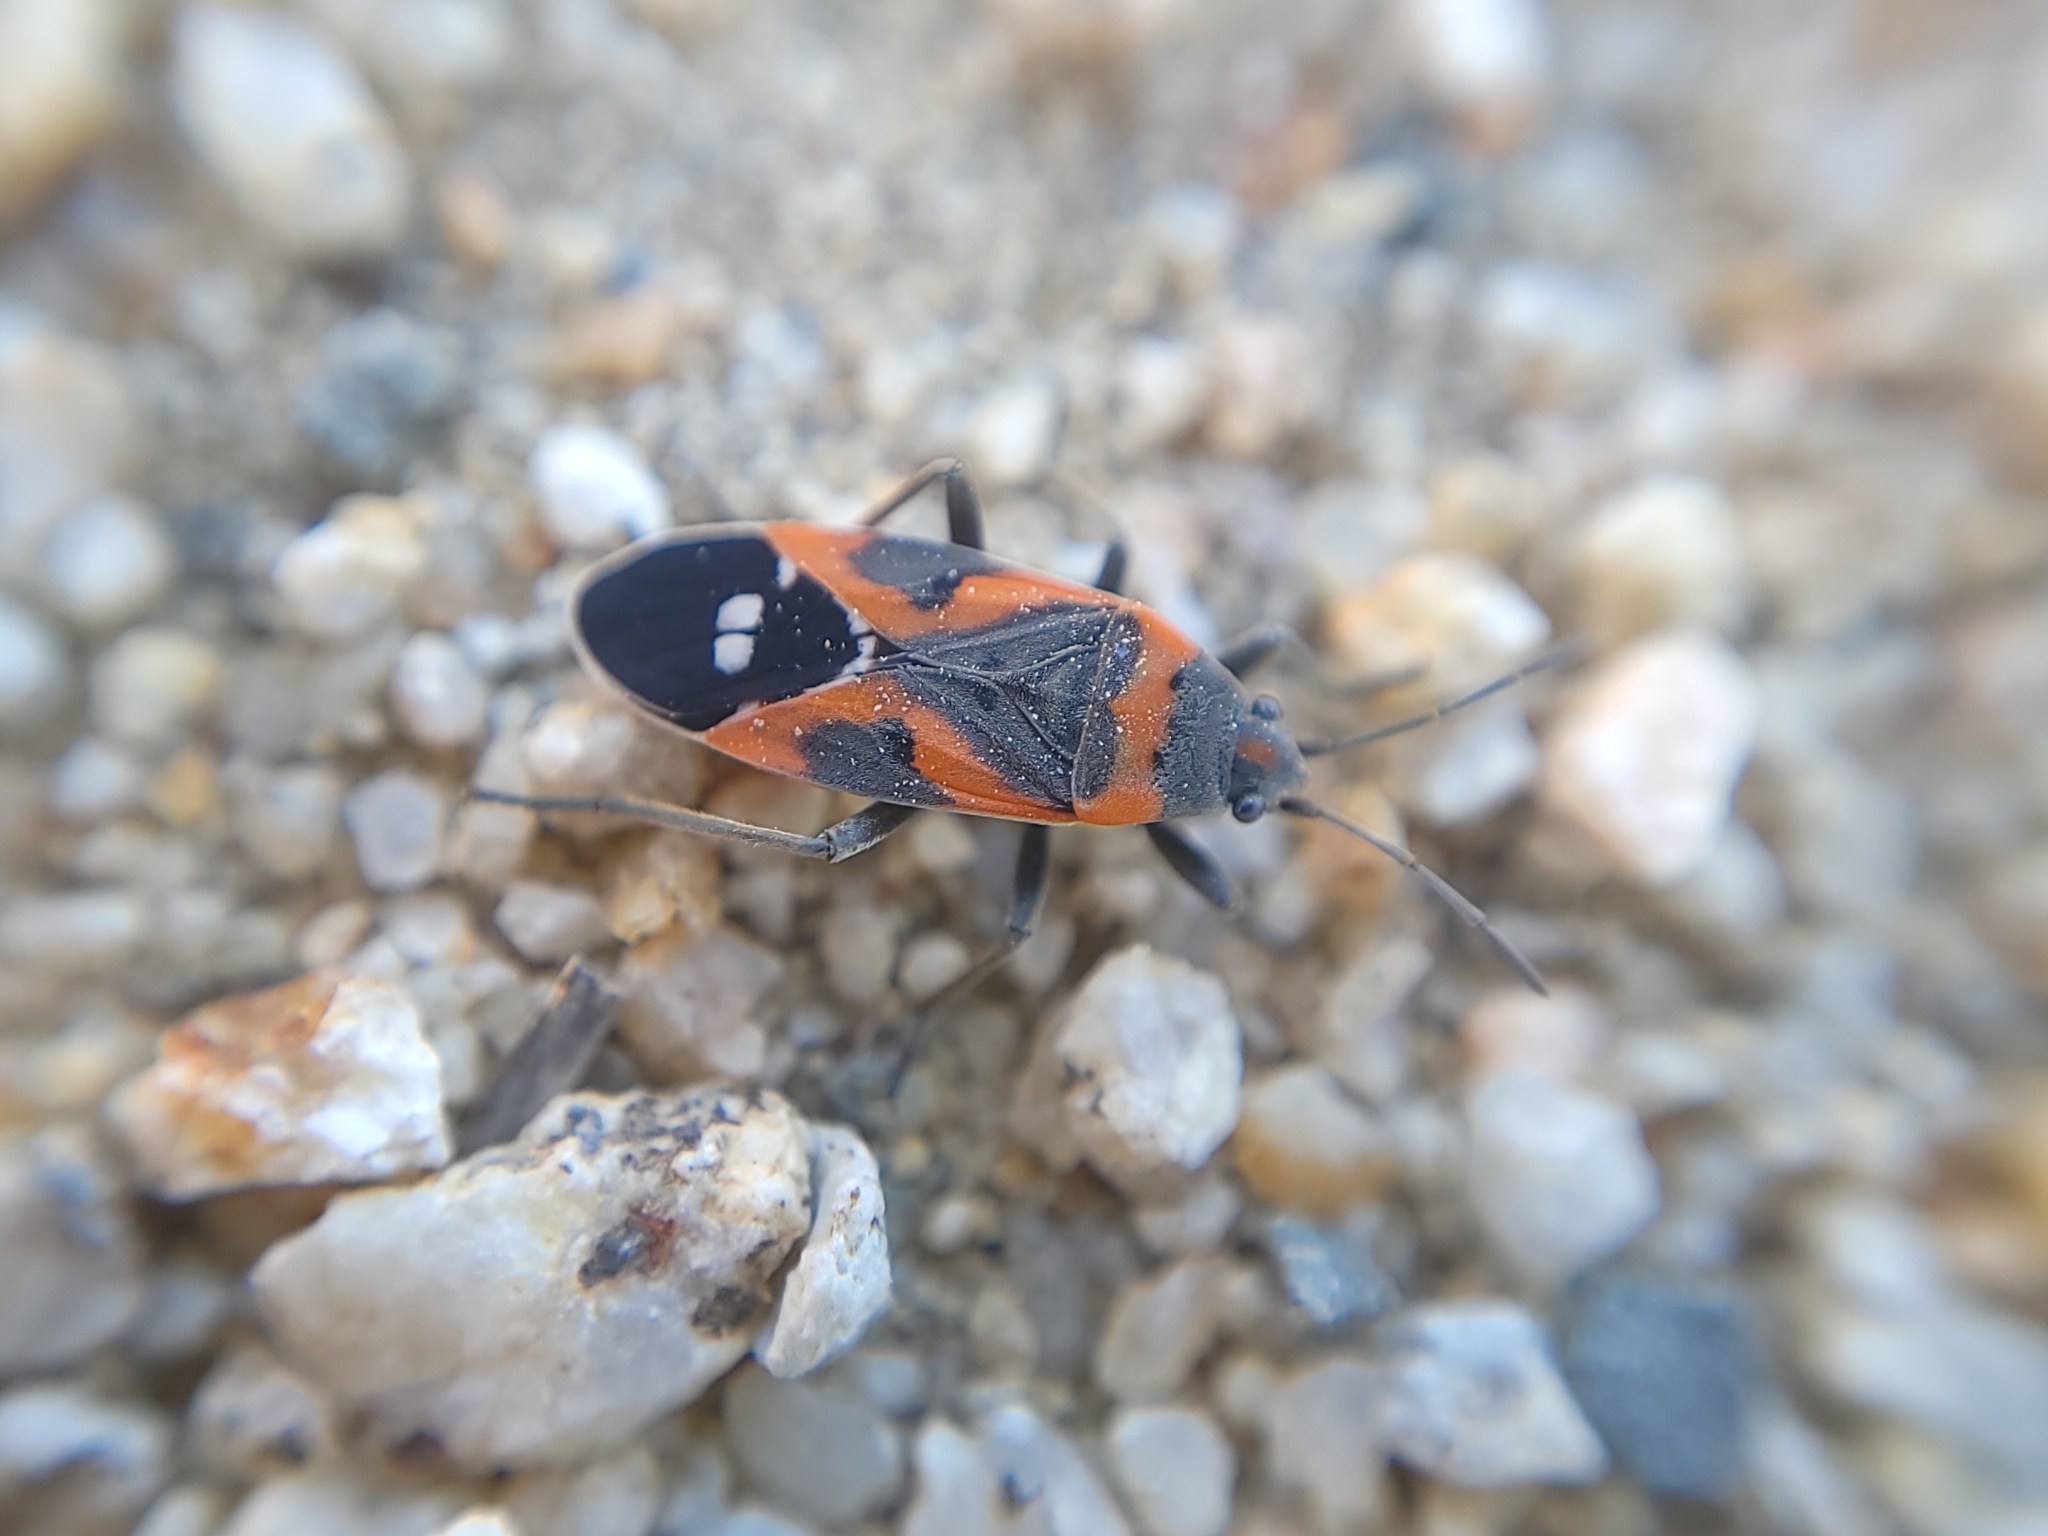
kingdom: Animalia
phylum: Arthropoda
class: Insecta
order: Hemiptera
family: Lygaeidae
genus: Lygaeus
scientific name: Lygaeus kalmii
